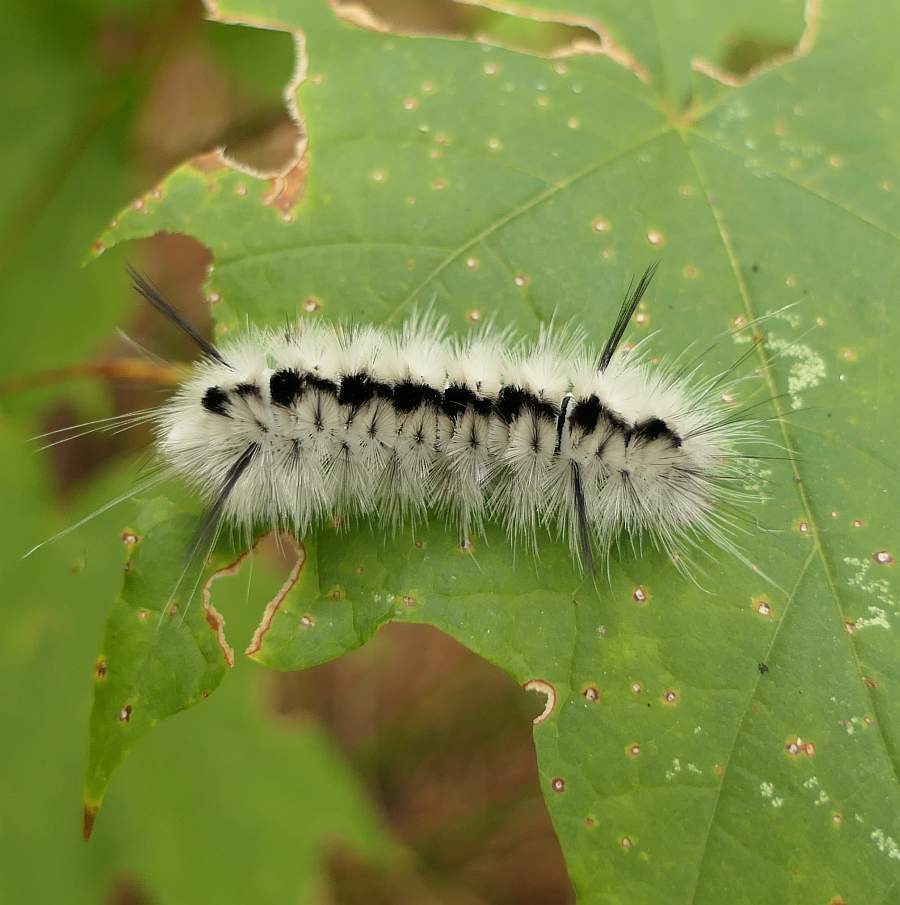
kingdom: Animalia
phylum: Arthropoda
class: Insecta
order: Lepidoptera
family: Erebidae
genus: Lophocampa
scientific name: Lophocampa caryae
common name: Hickory tussock moth
